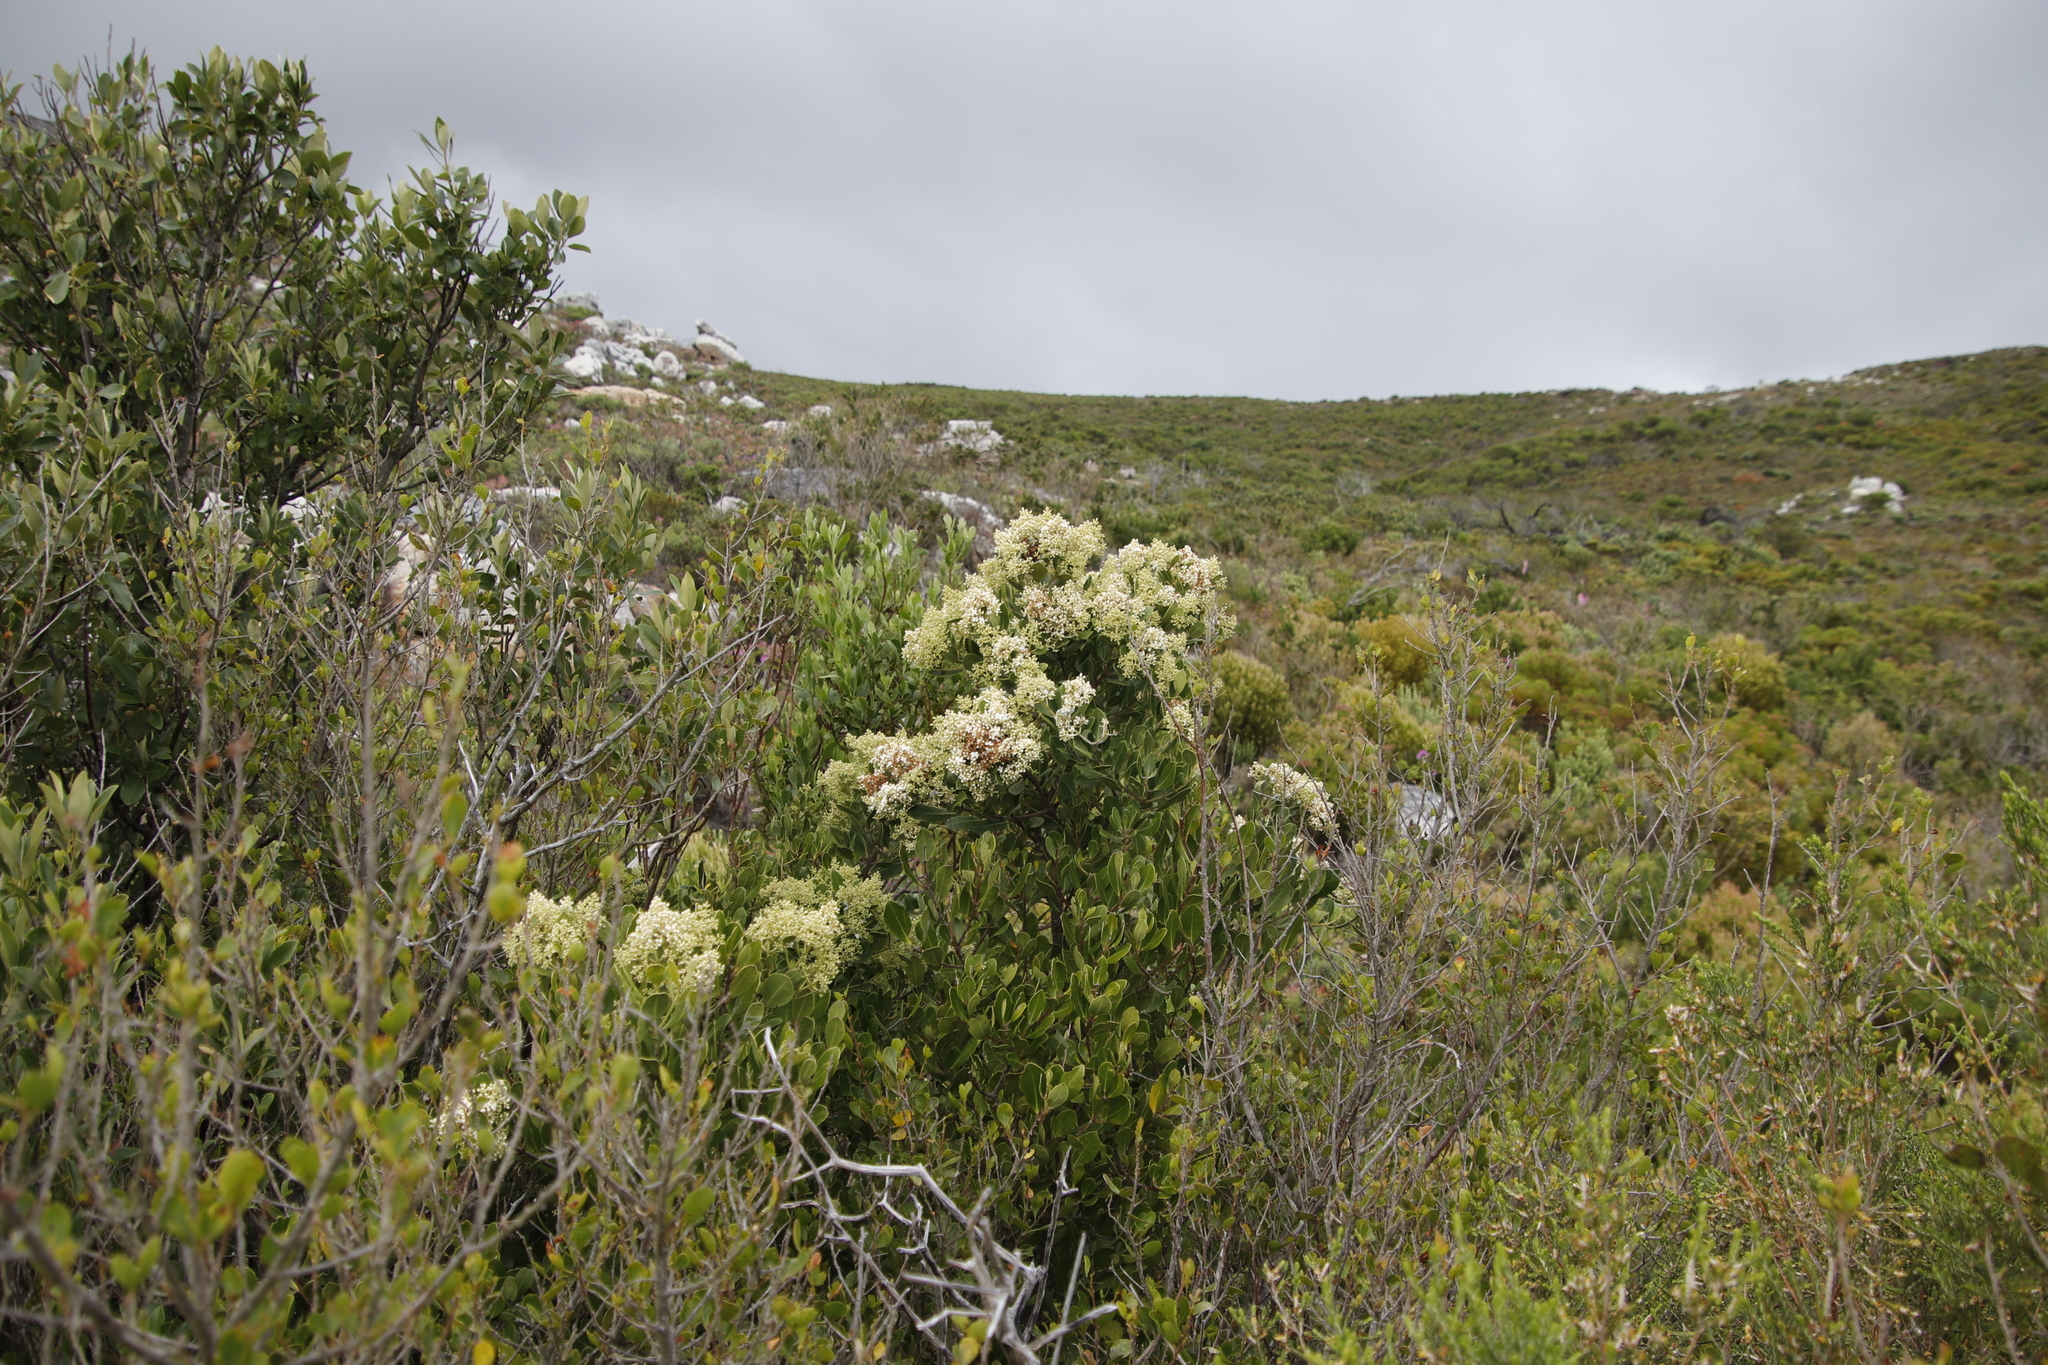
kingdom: Plantae
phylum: Tracheophyta
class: Magnoliopsida
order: Lamiales
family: Oleaceae
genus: Olea
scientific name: Olea capensis
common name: Black ironwood
